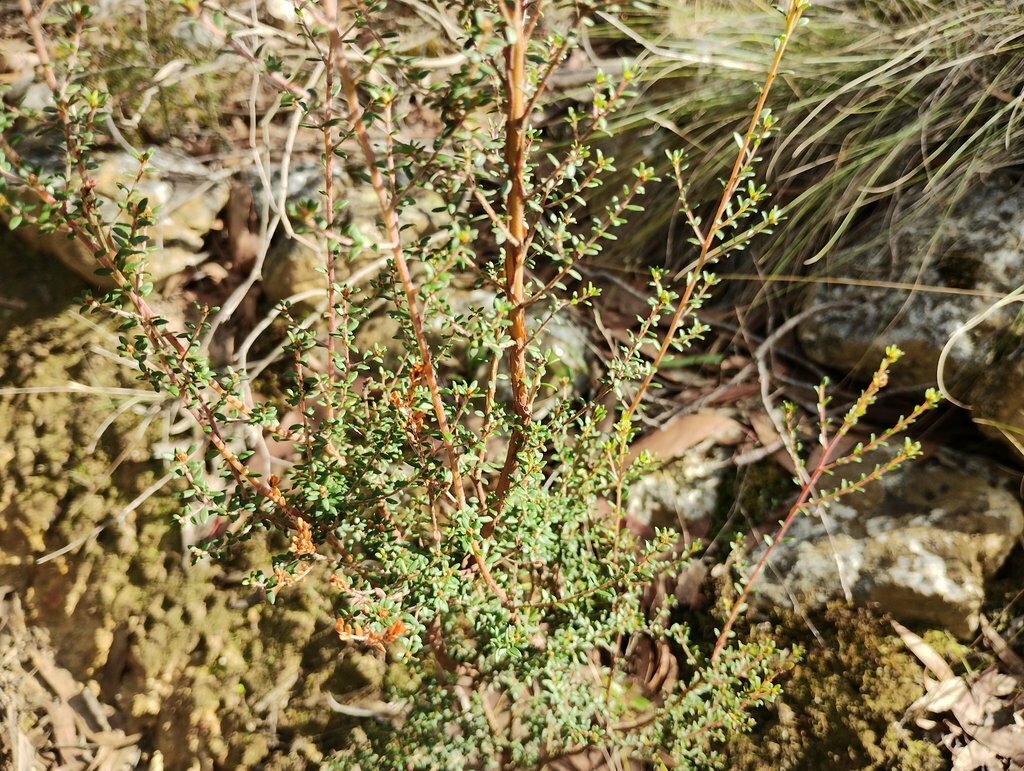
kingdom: Plantae
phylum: Tracheophyta
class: Magnoliopsida
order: Fabales
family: Fabaceae
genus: Pultenaea
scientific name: Pultenaea gunnii
